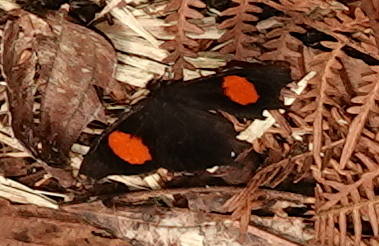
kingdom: Animalia
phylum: Arthropoda
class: Insecta
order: Lepidoptera
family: Nymphalidae
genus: Daedalma
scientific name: Daedalma dinias
